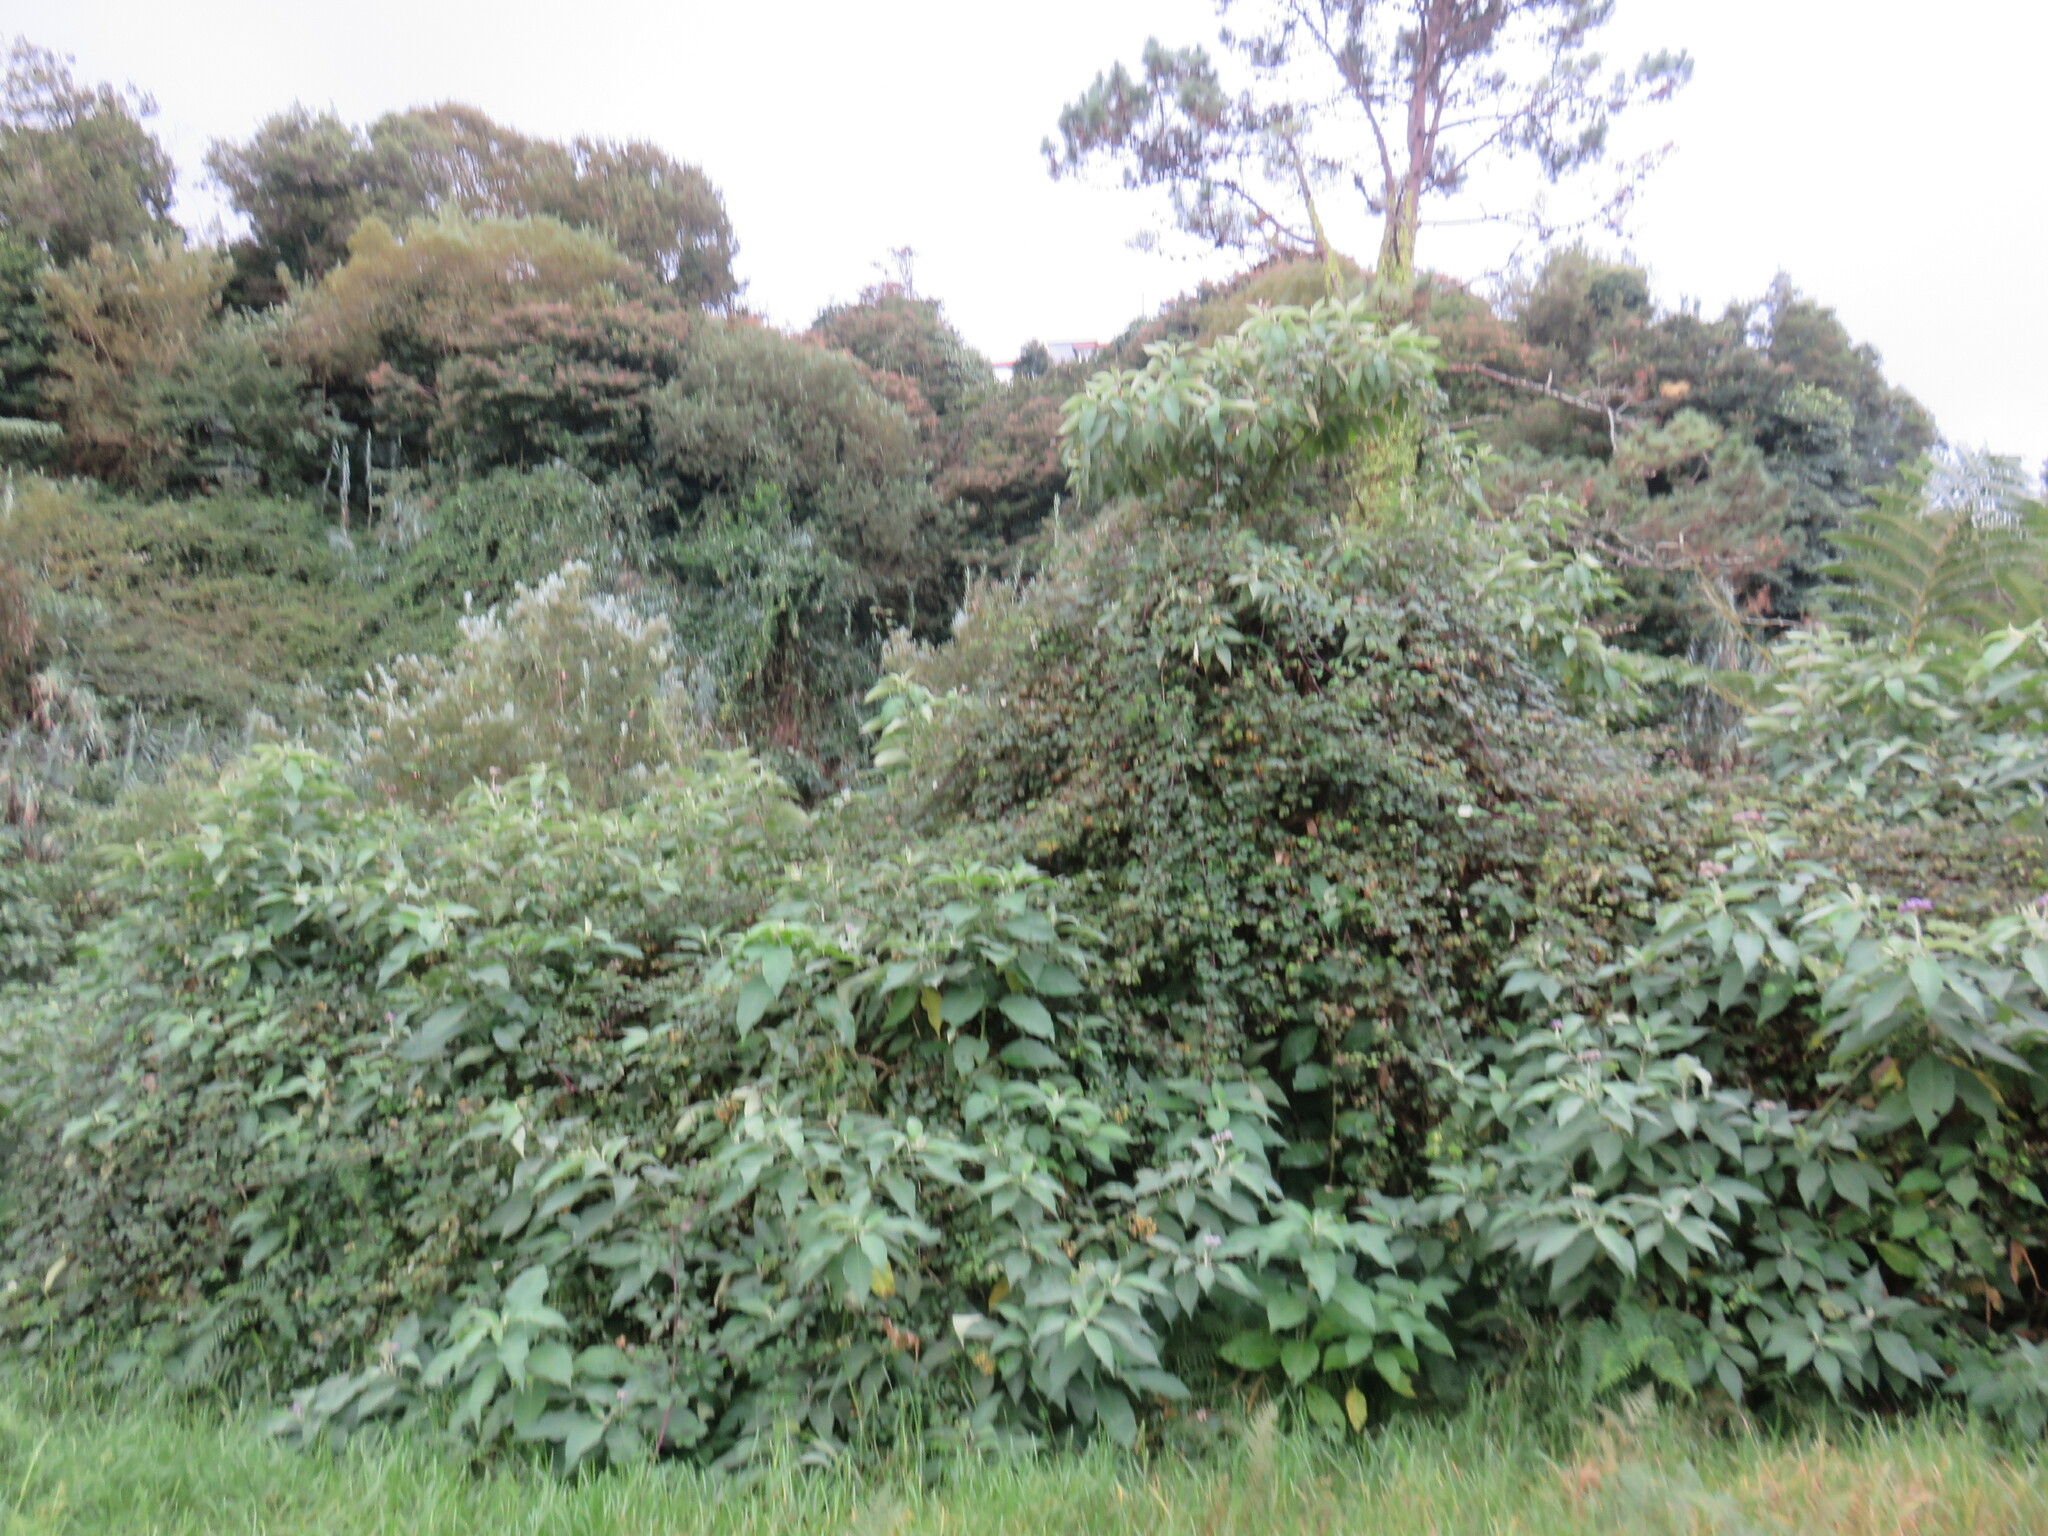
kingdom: Plantae
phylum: Tracheophyta
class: Magnoliopsida
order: Solanales
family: Solanaceae
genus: Solanum
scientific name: Solanum mauritianum
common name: Earleaf nightshade
